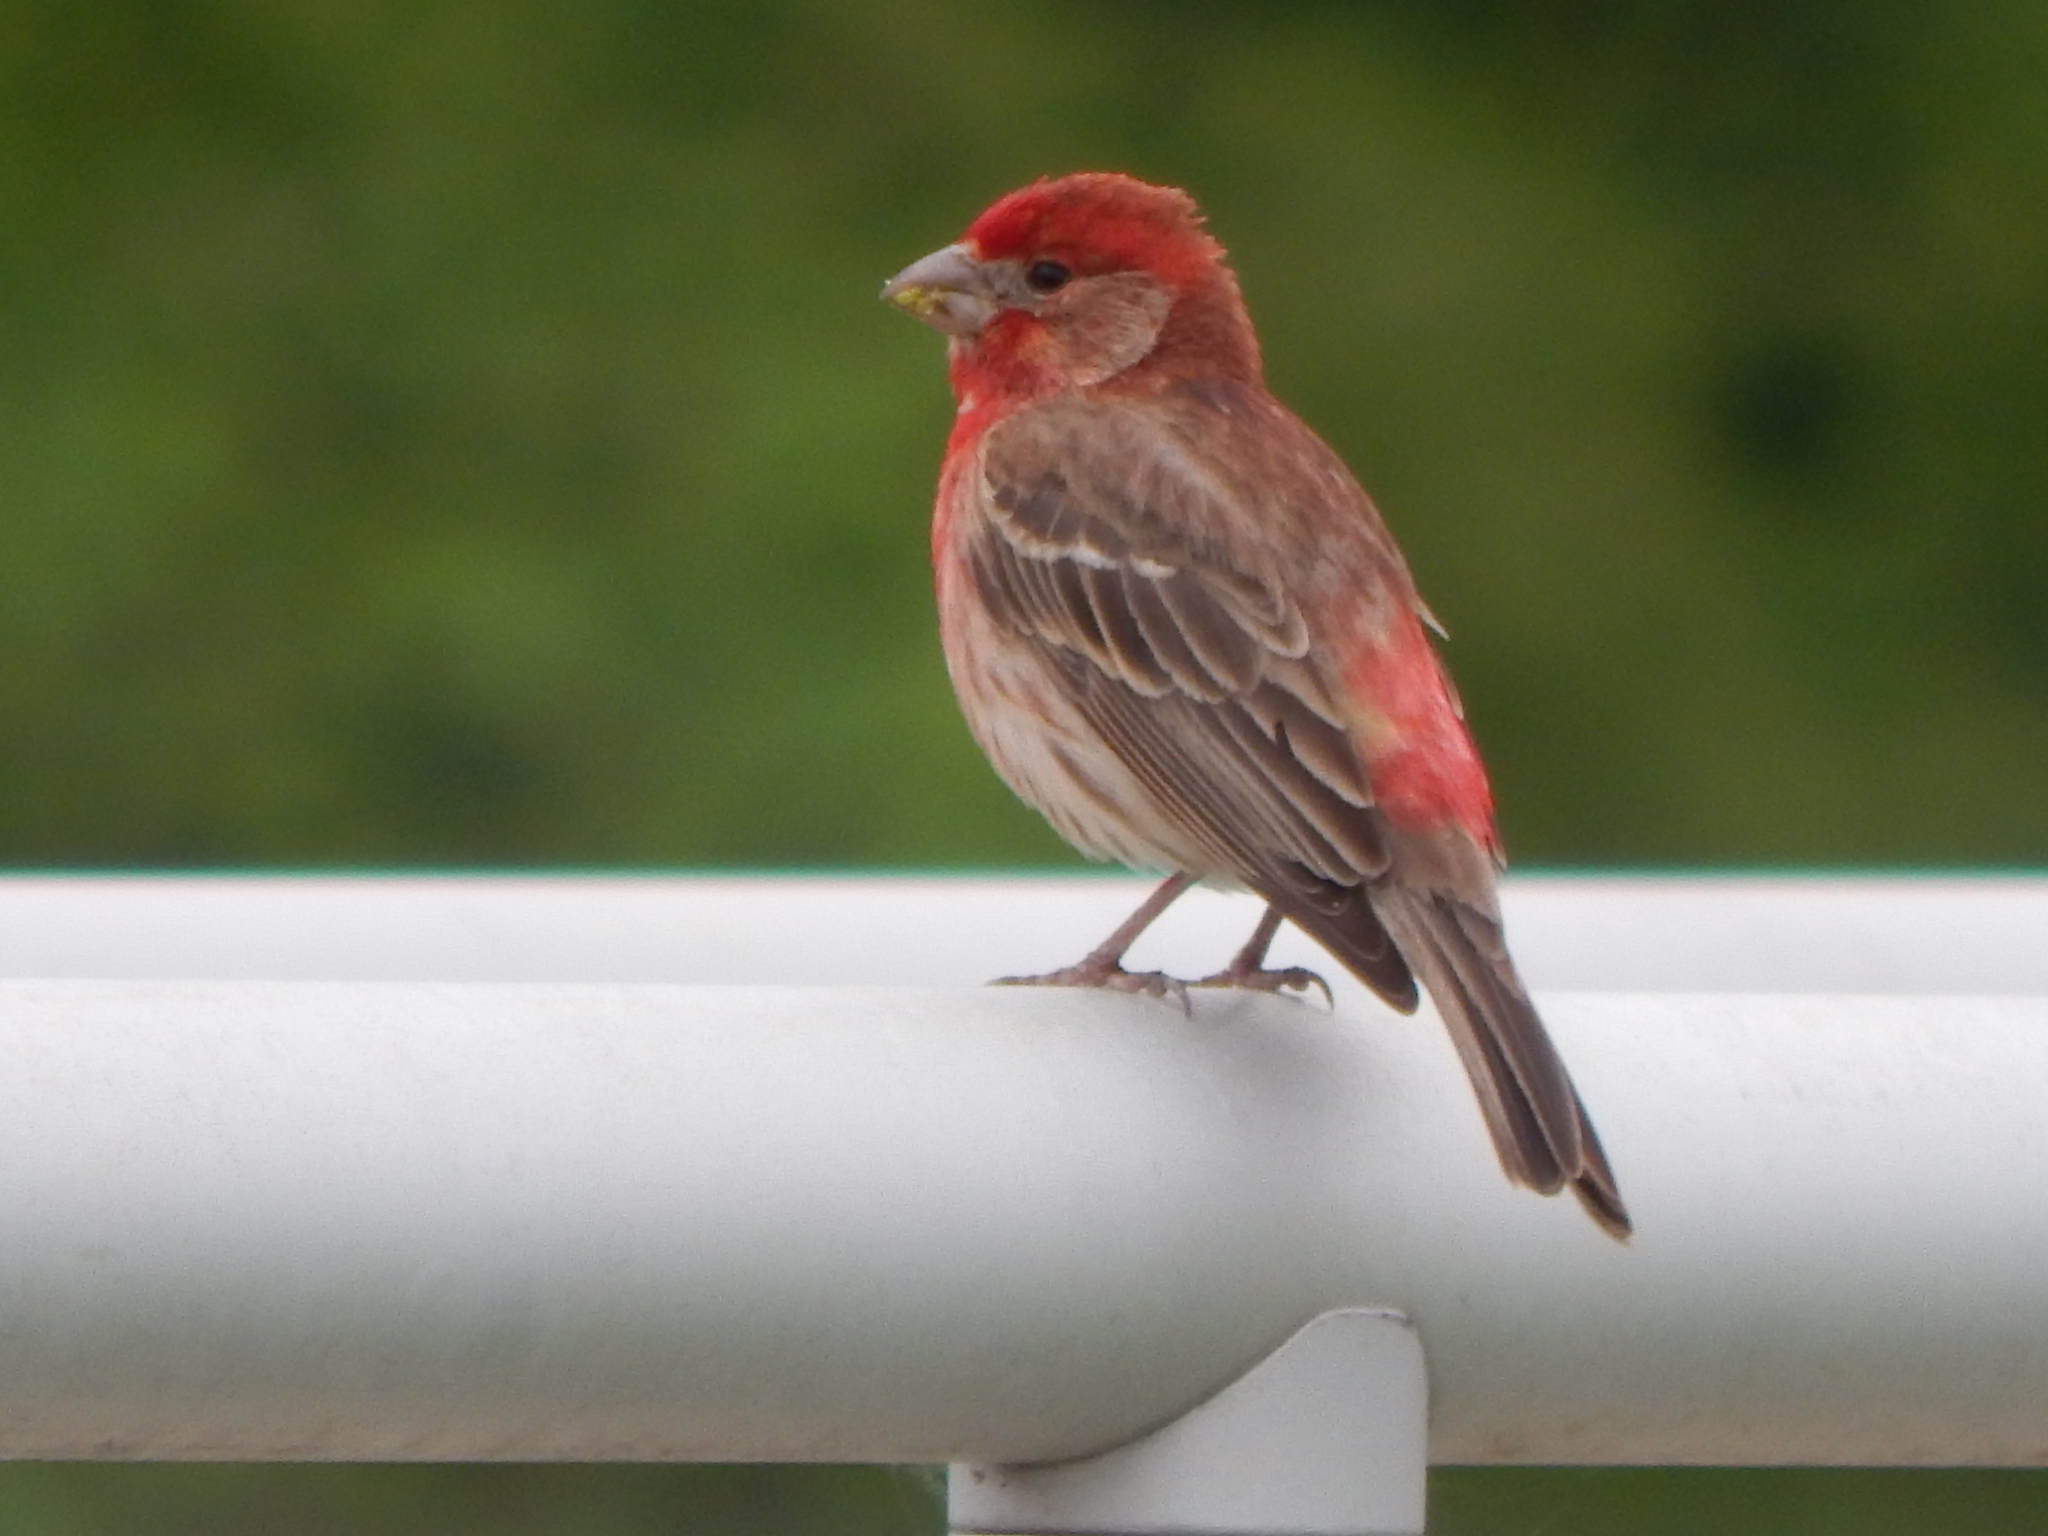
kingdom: Animalia
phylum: Chordata
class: Aves
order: Passeriformes
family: Fringillidae
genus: Haemorhous
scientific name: Haemorhous mexicanus
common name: House finch
